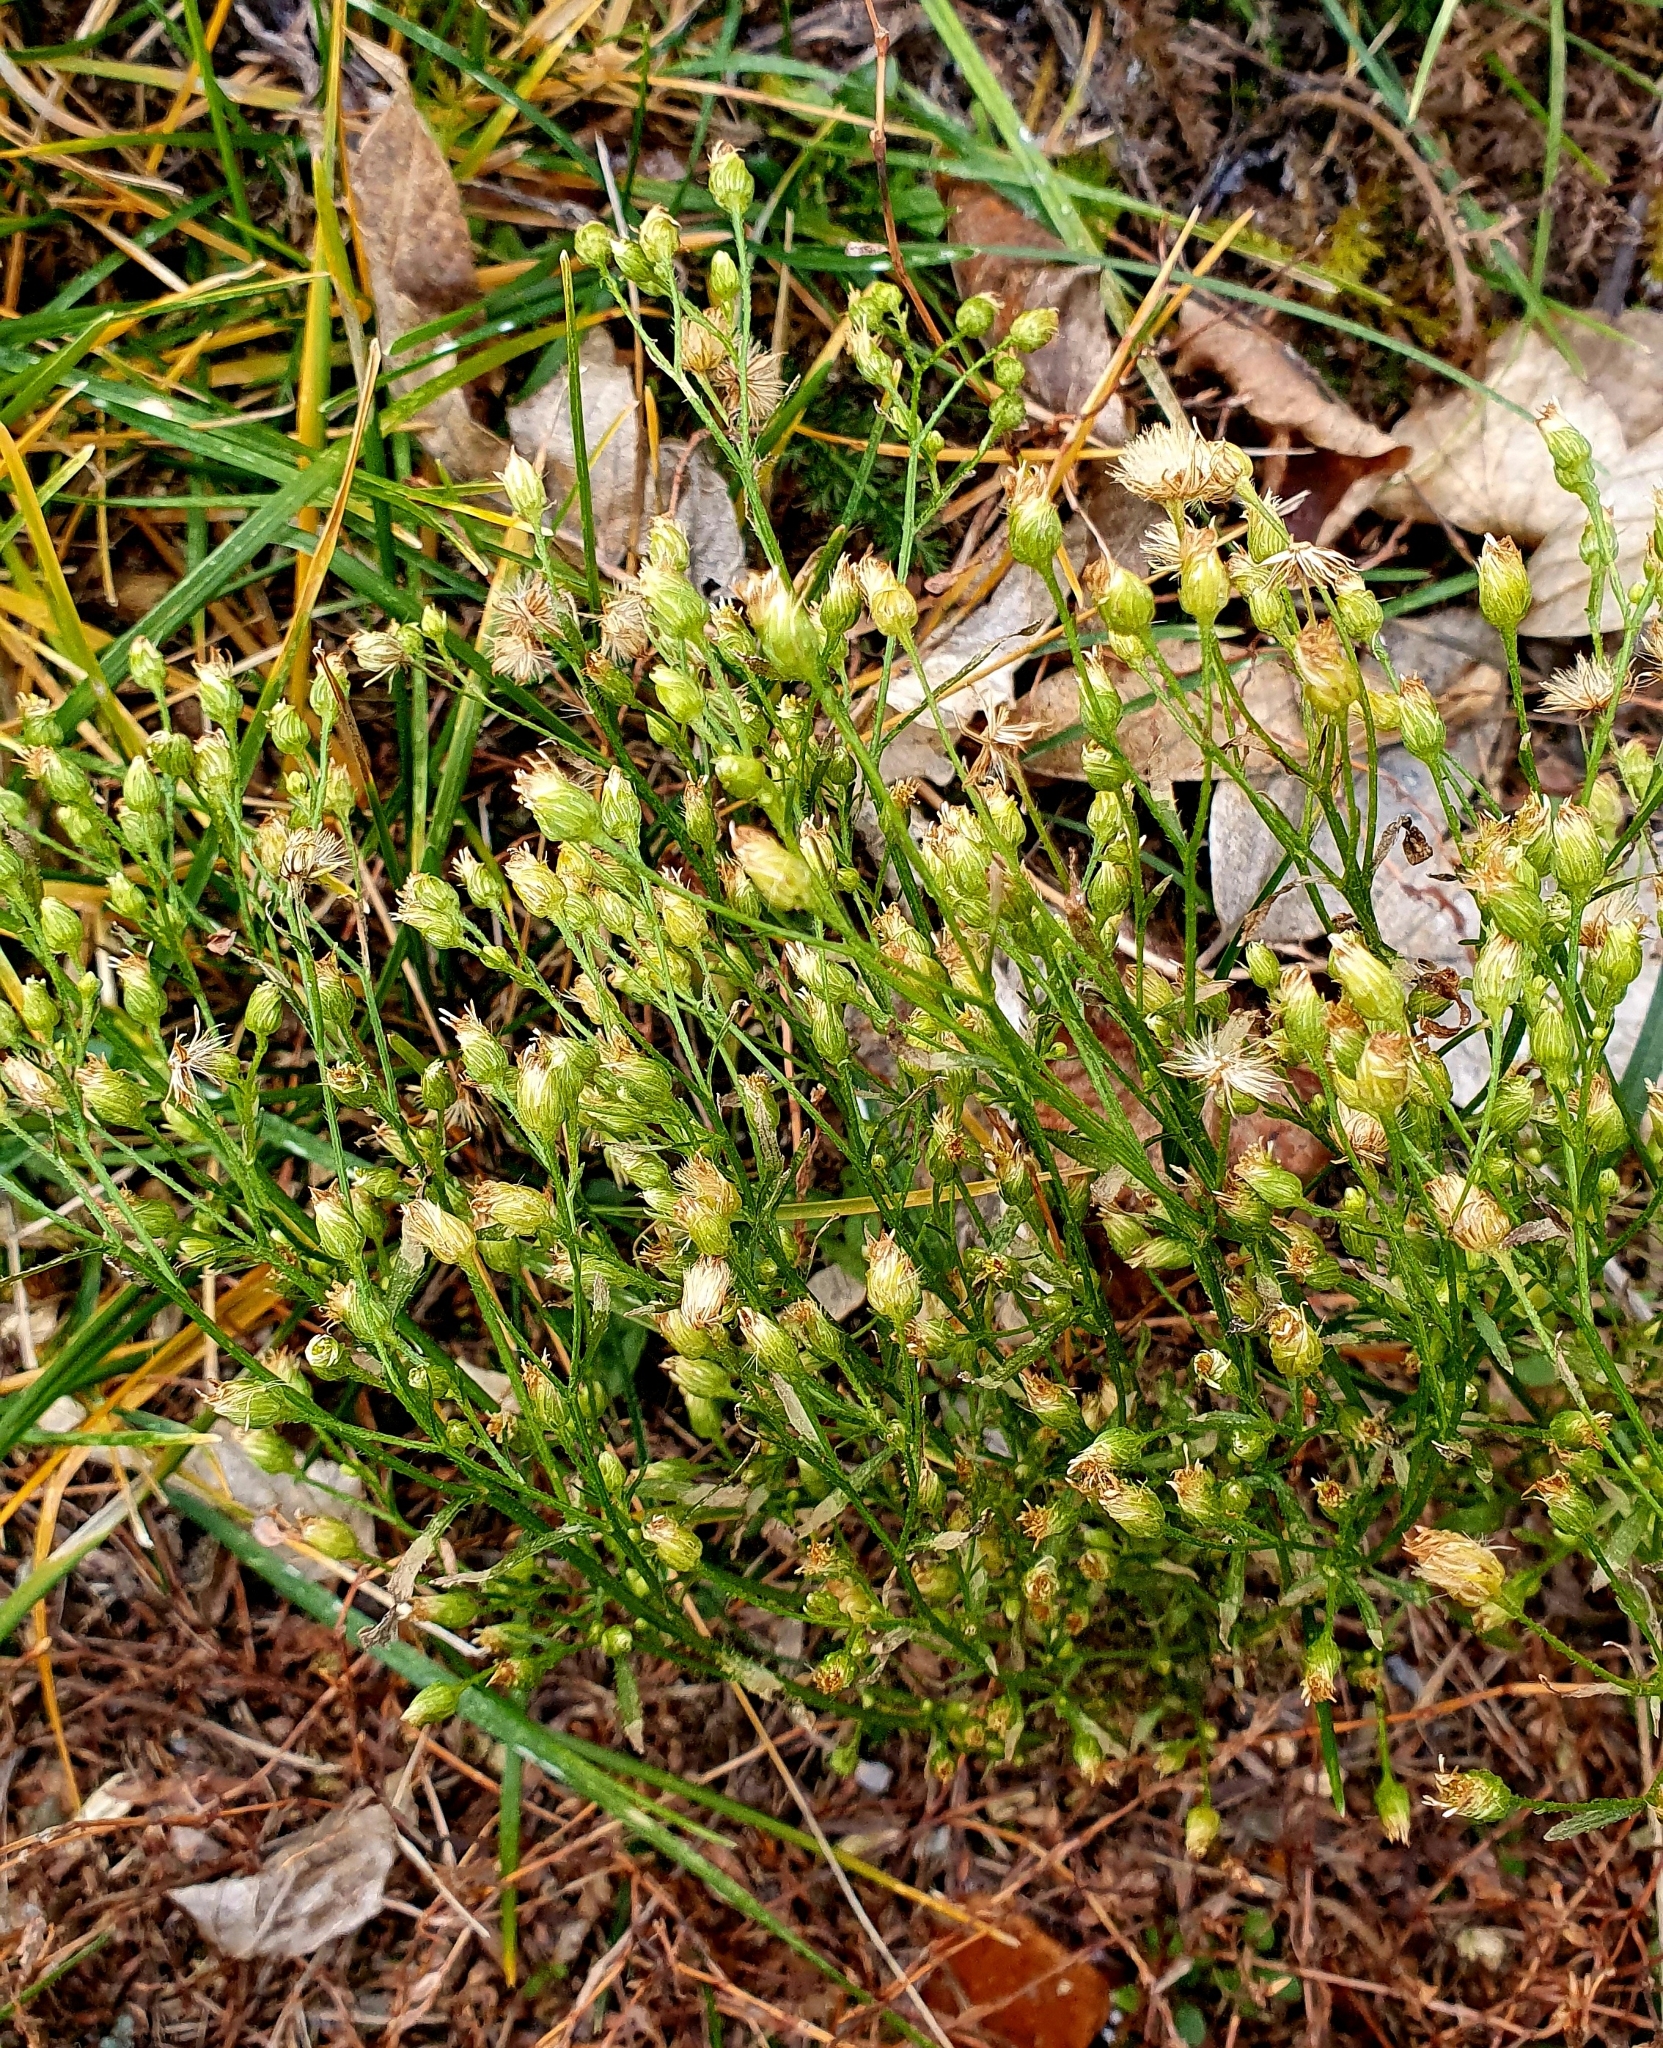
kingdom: Plantae
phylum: Tracheophyta
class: Magnoliopsida
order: Asterales
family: Asteraceae
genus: Erigeron
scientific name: Erigeron canadensis
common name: Canadian fleabane
